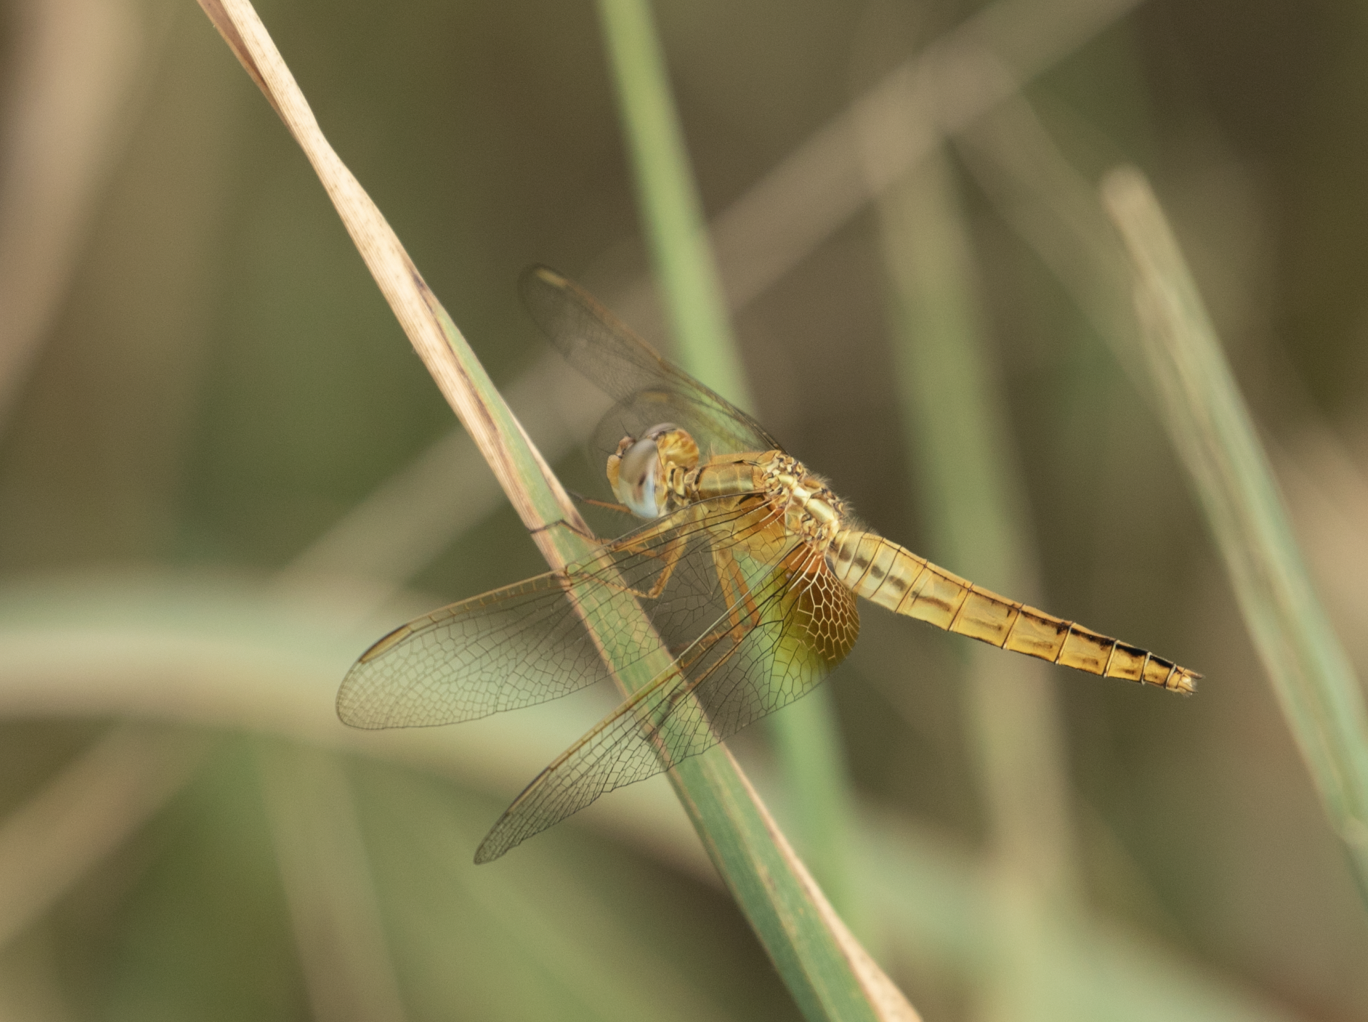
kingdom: Animalia
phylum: Arthropoda
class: Insecta
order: Odonata
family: Libellulidae
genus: Crocothemis
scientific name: Crocothemis erythraea
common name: Scarlet dragonfly
